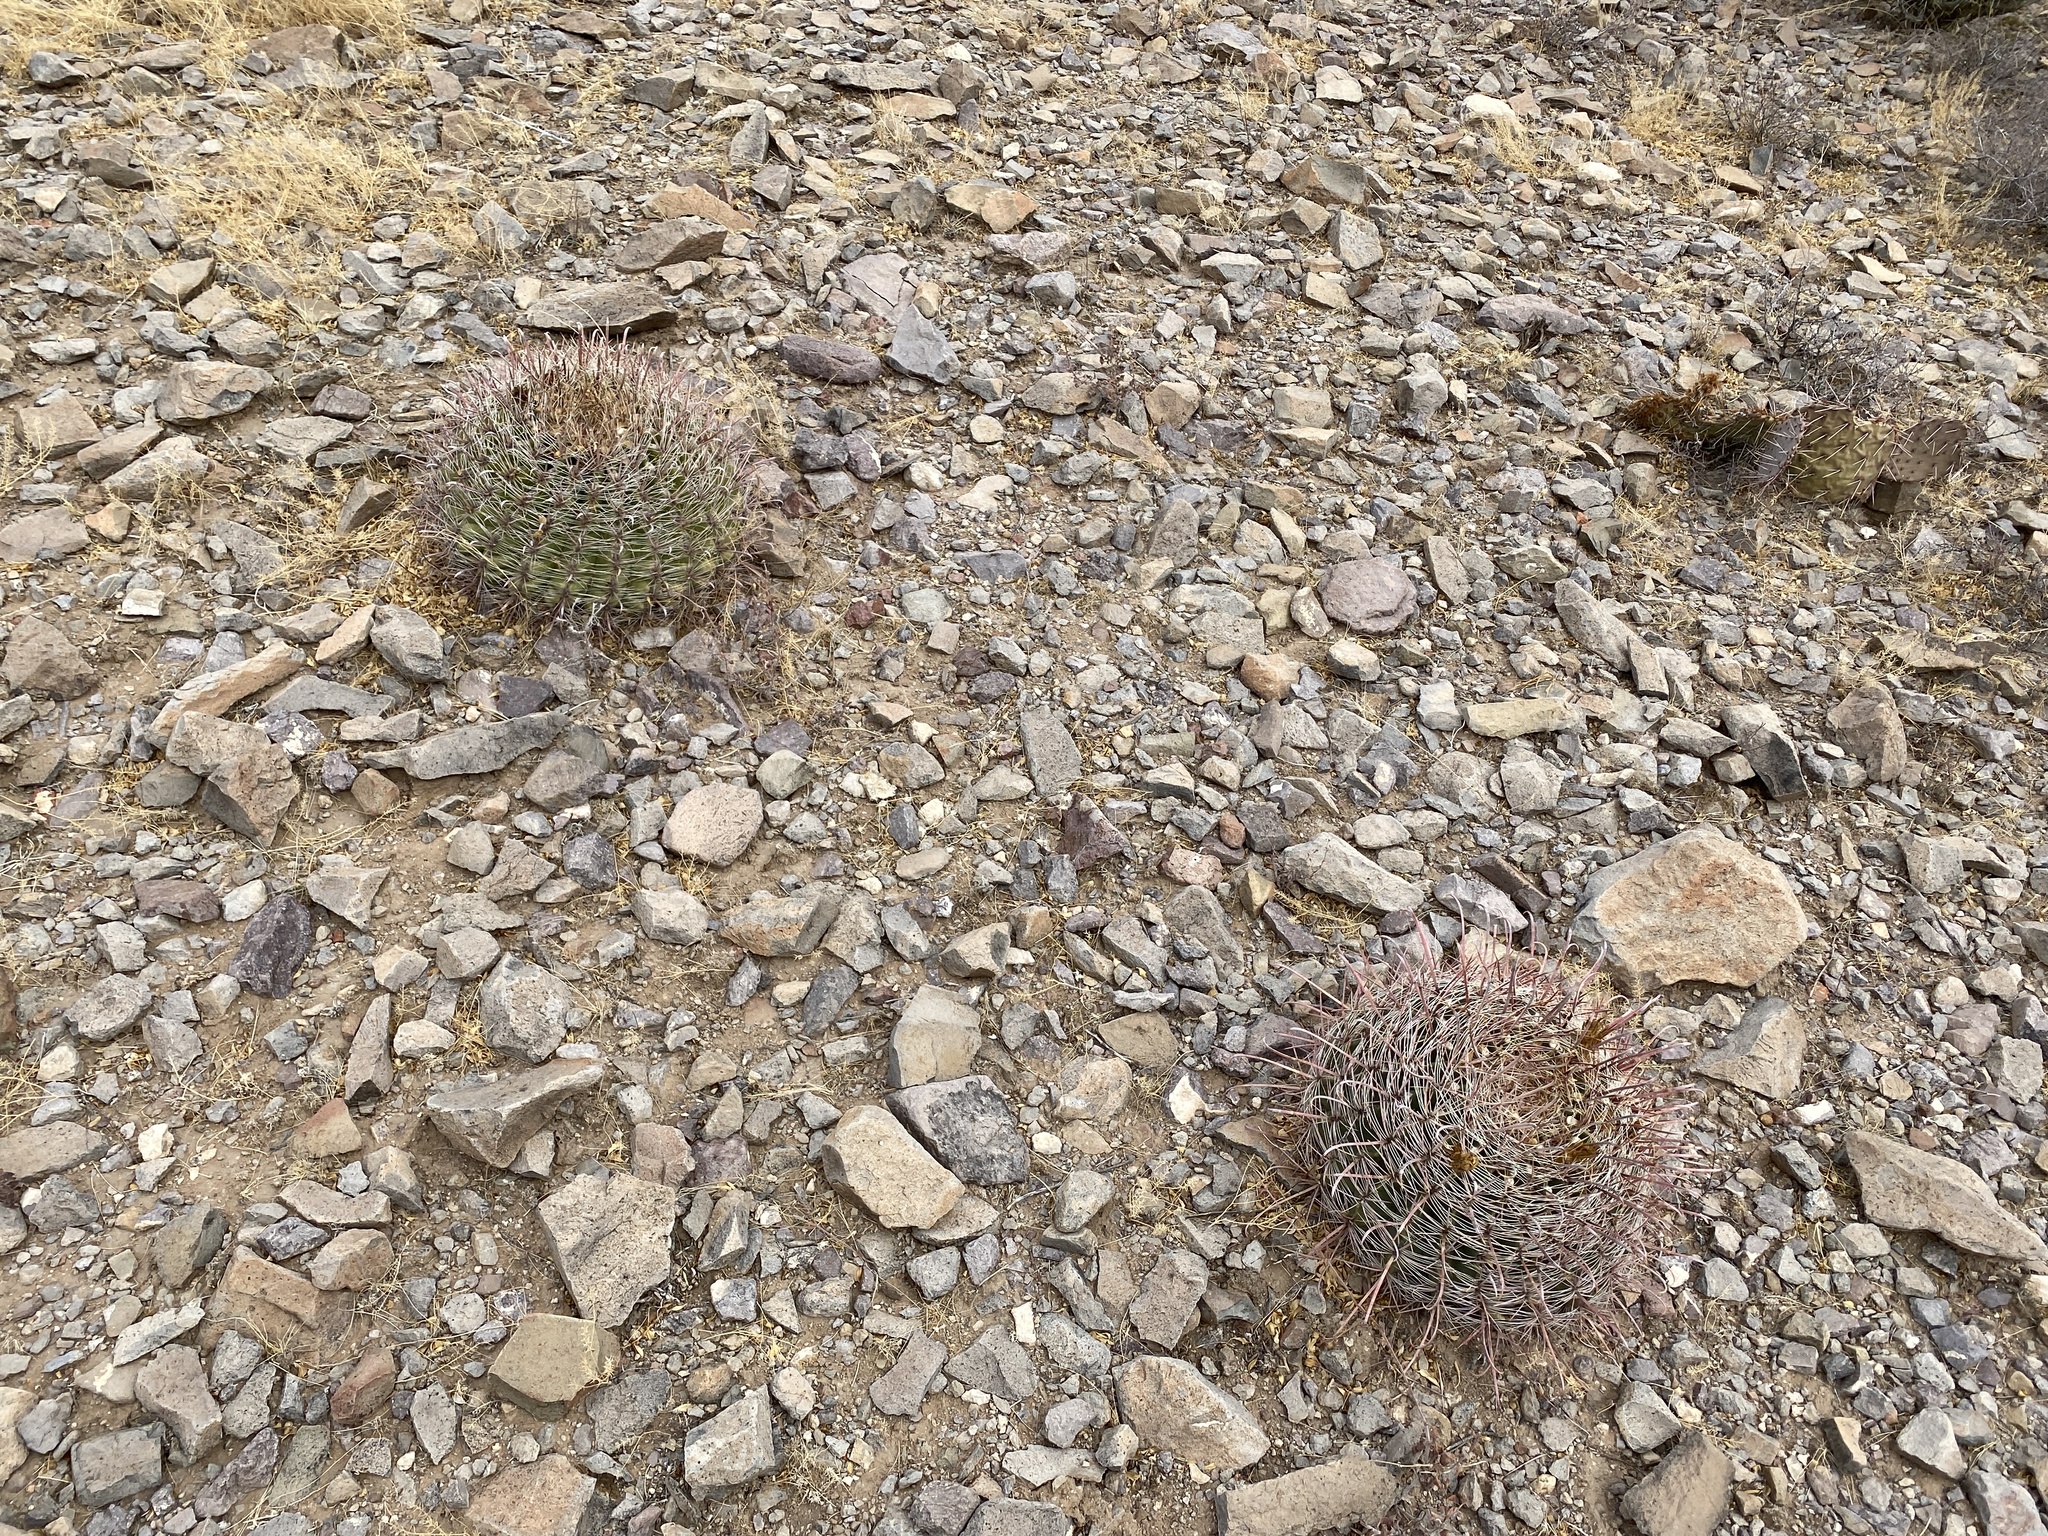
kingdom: Plantae
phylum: Tracheophyta
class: Magnoliopsida
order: Caryophyllales
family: Cactaceae
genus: Ferocactus
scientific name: Ferocactus wislizeni
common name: Candy barrel cactus
